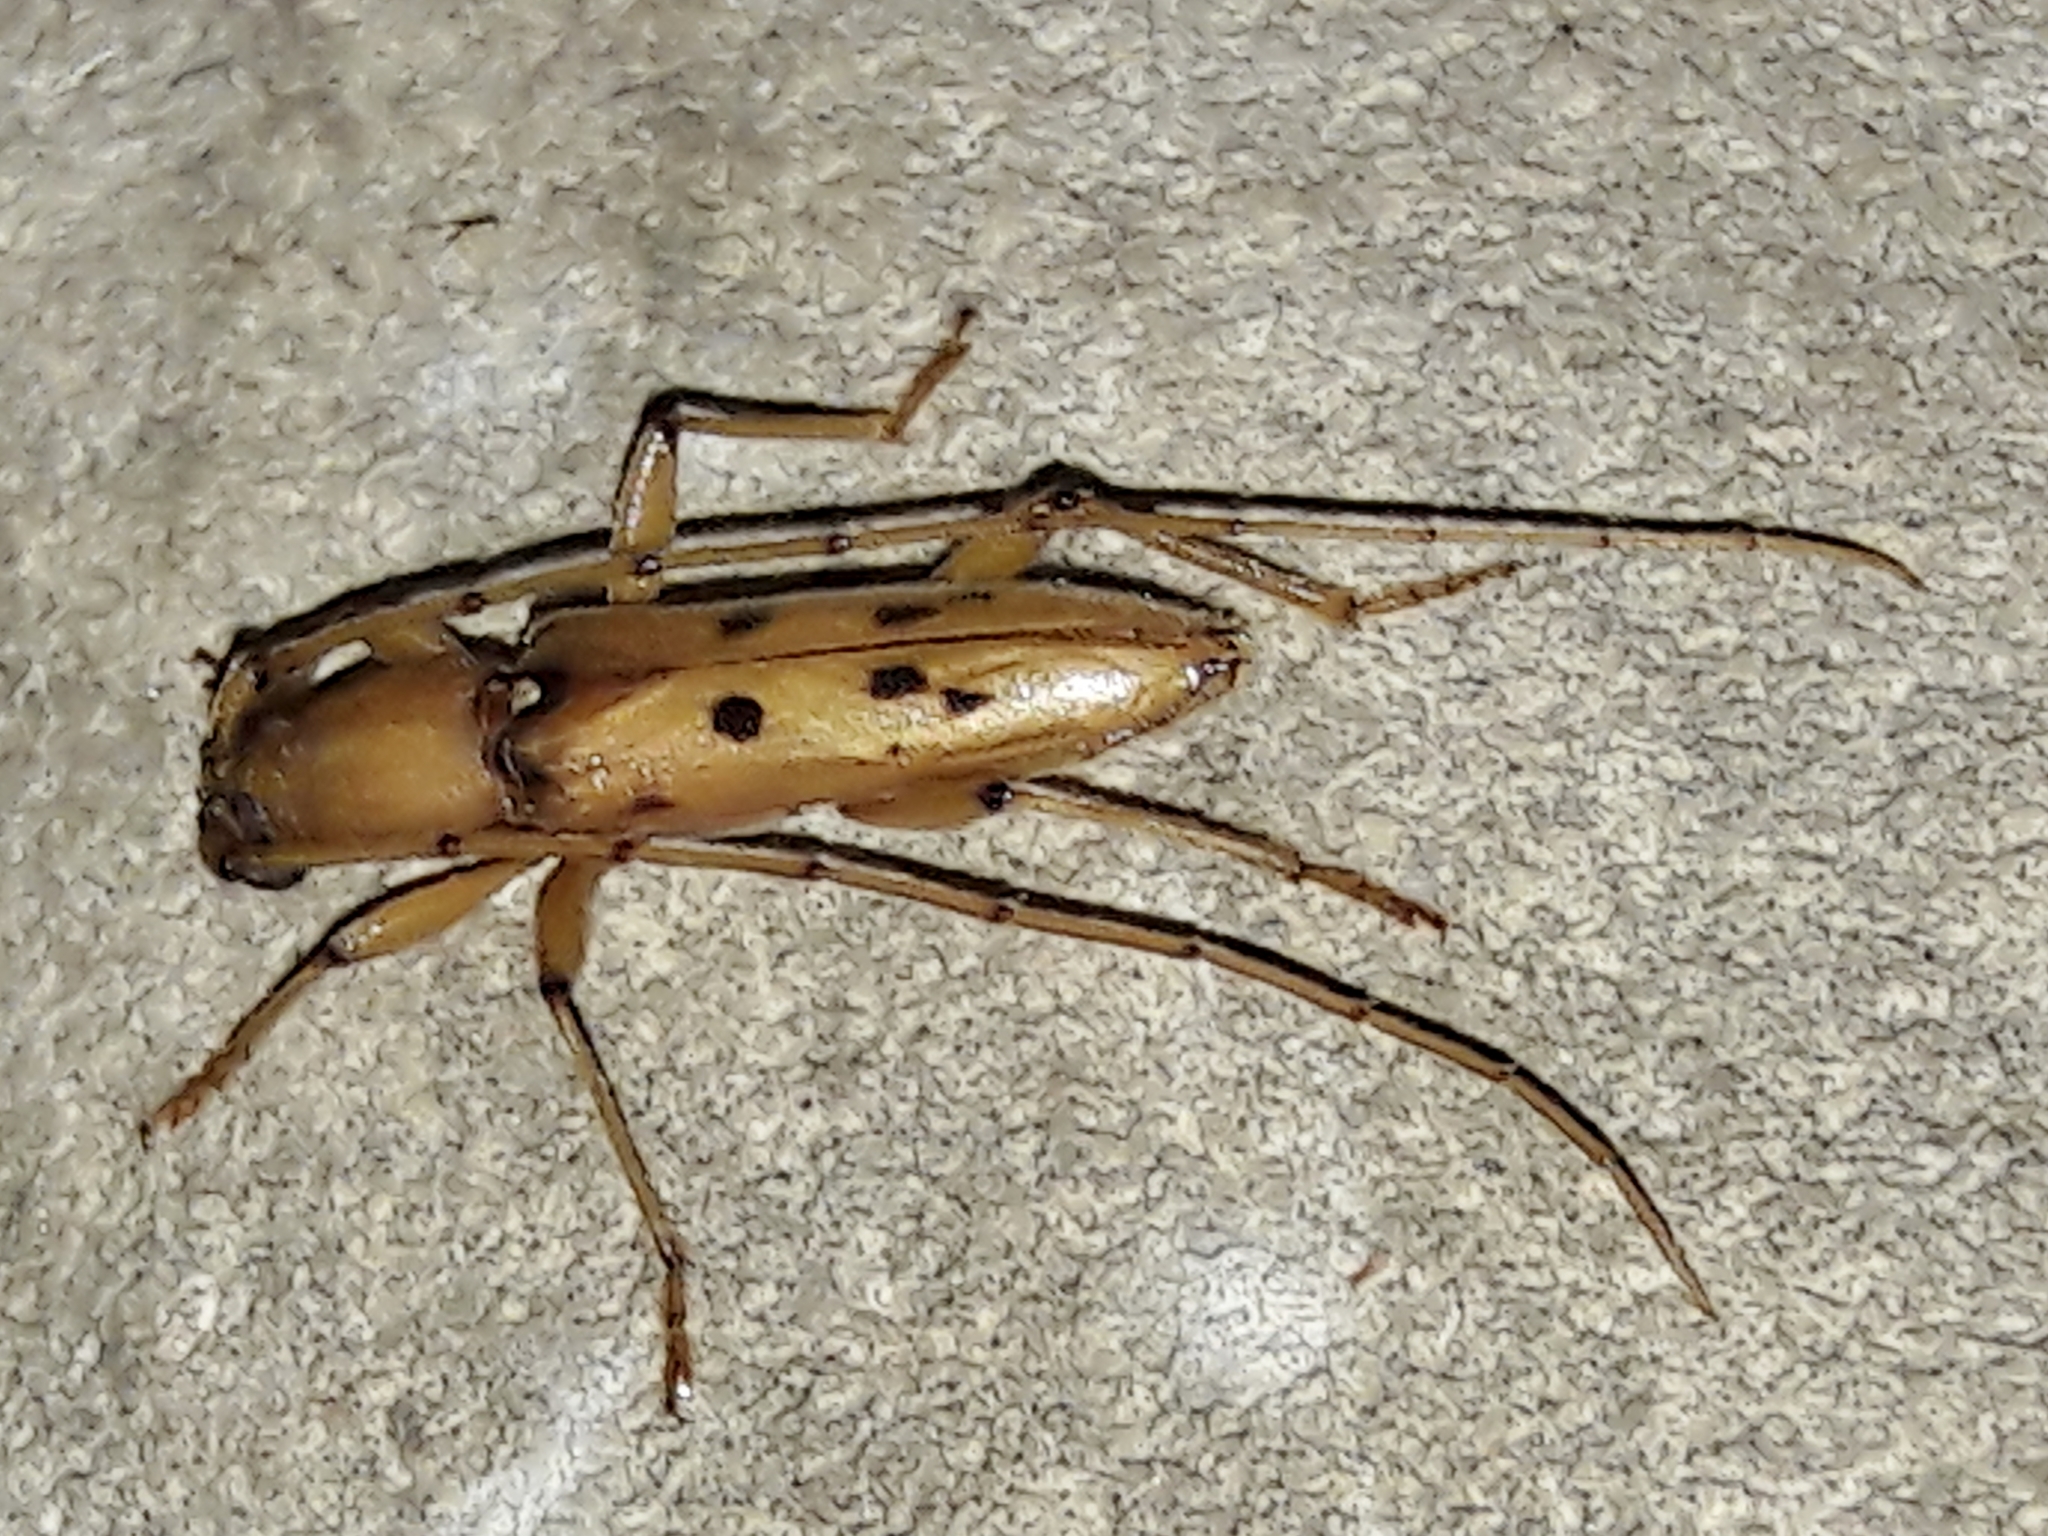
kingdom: Animalia
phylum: Arthropoda
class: Insecta
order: Coleoptera
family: Cerambycidae
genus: Achryson
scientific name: Achryson surinamum
